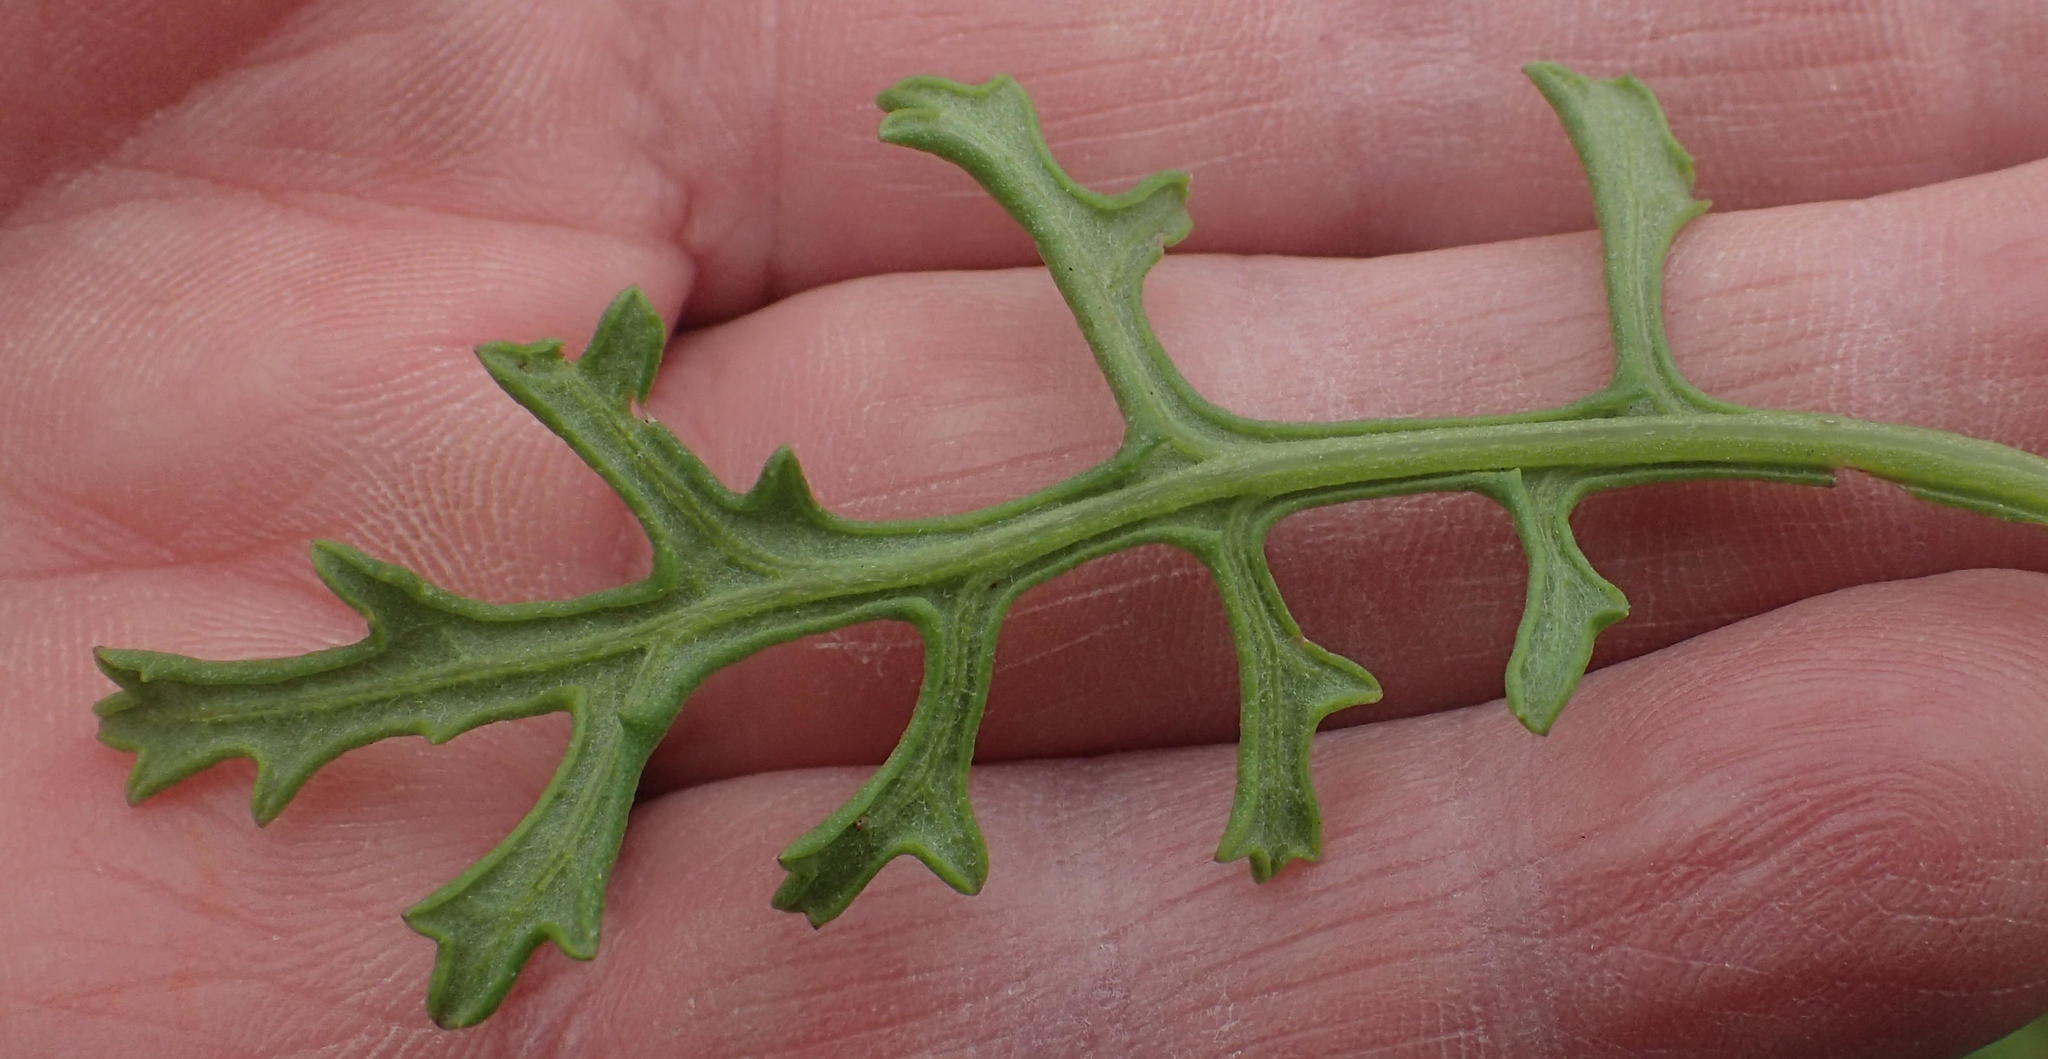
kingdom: Plantae
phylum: Tracheophyta
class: Magnoliopsida
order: Asterales
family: Asteraceae
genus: Senecio
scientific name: Senecio elegans
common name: Purple groundsel
